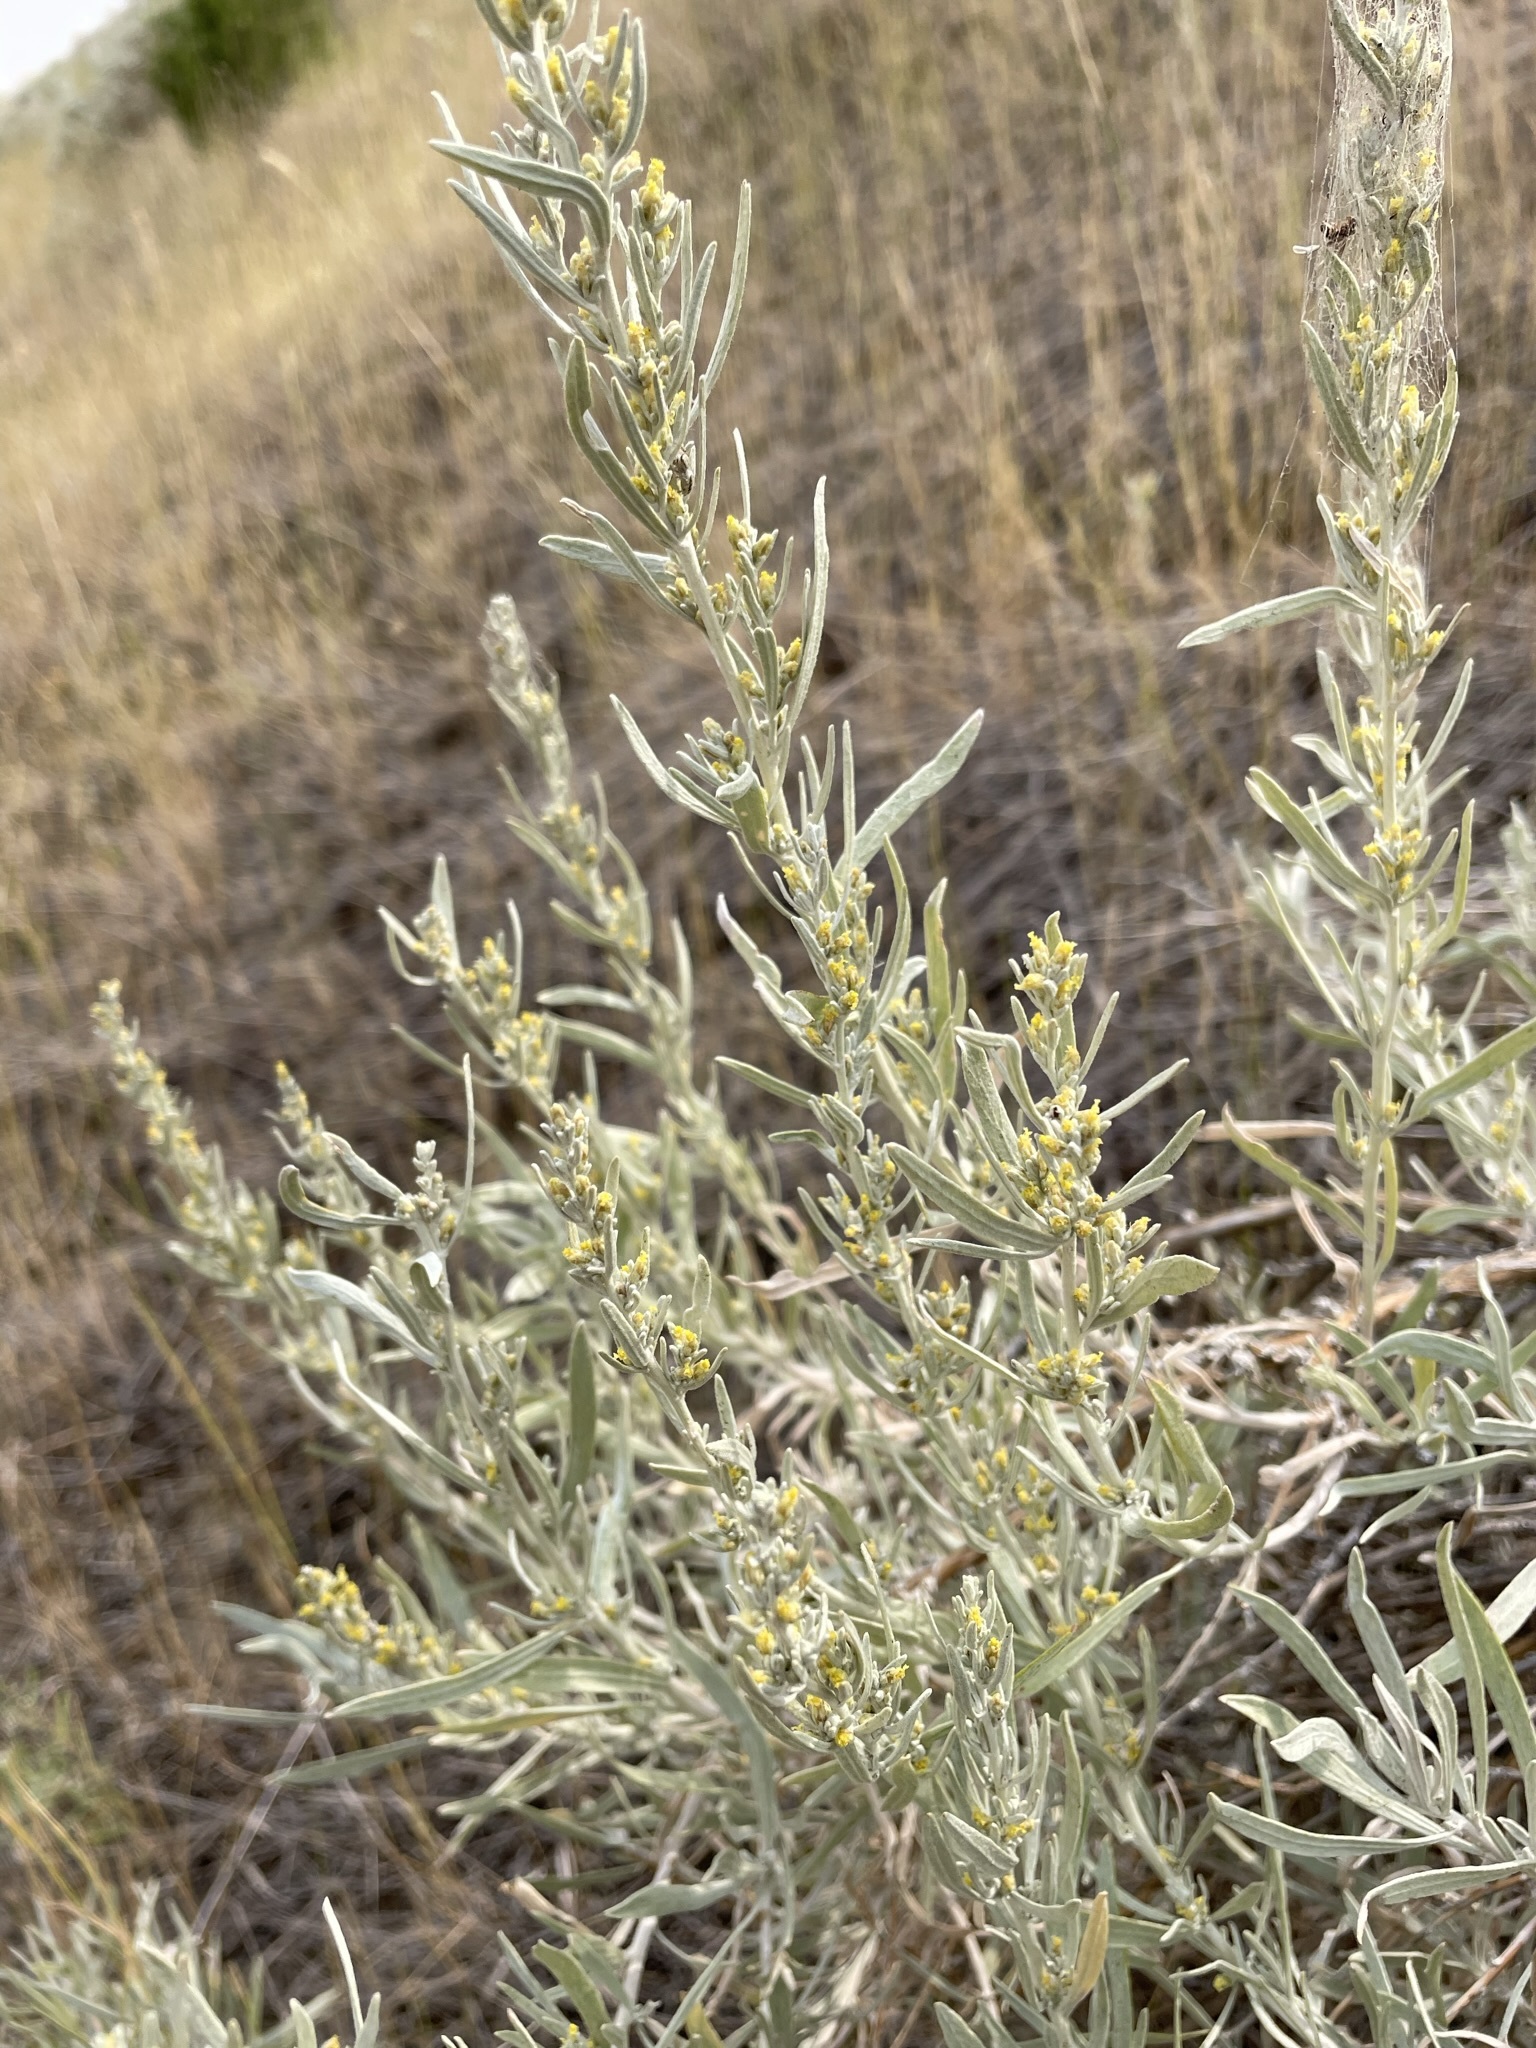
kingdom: Plantae
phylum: Tracheophyta
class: Magnoliopsida
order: Asterales
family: Asteraceae
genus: Artemisia
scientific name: Artemisia cana
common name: Silver sagebrush
